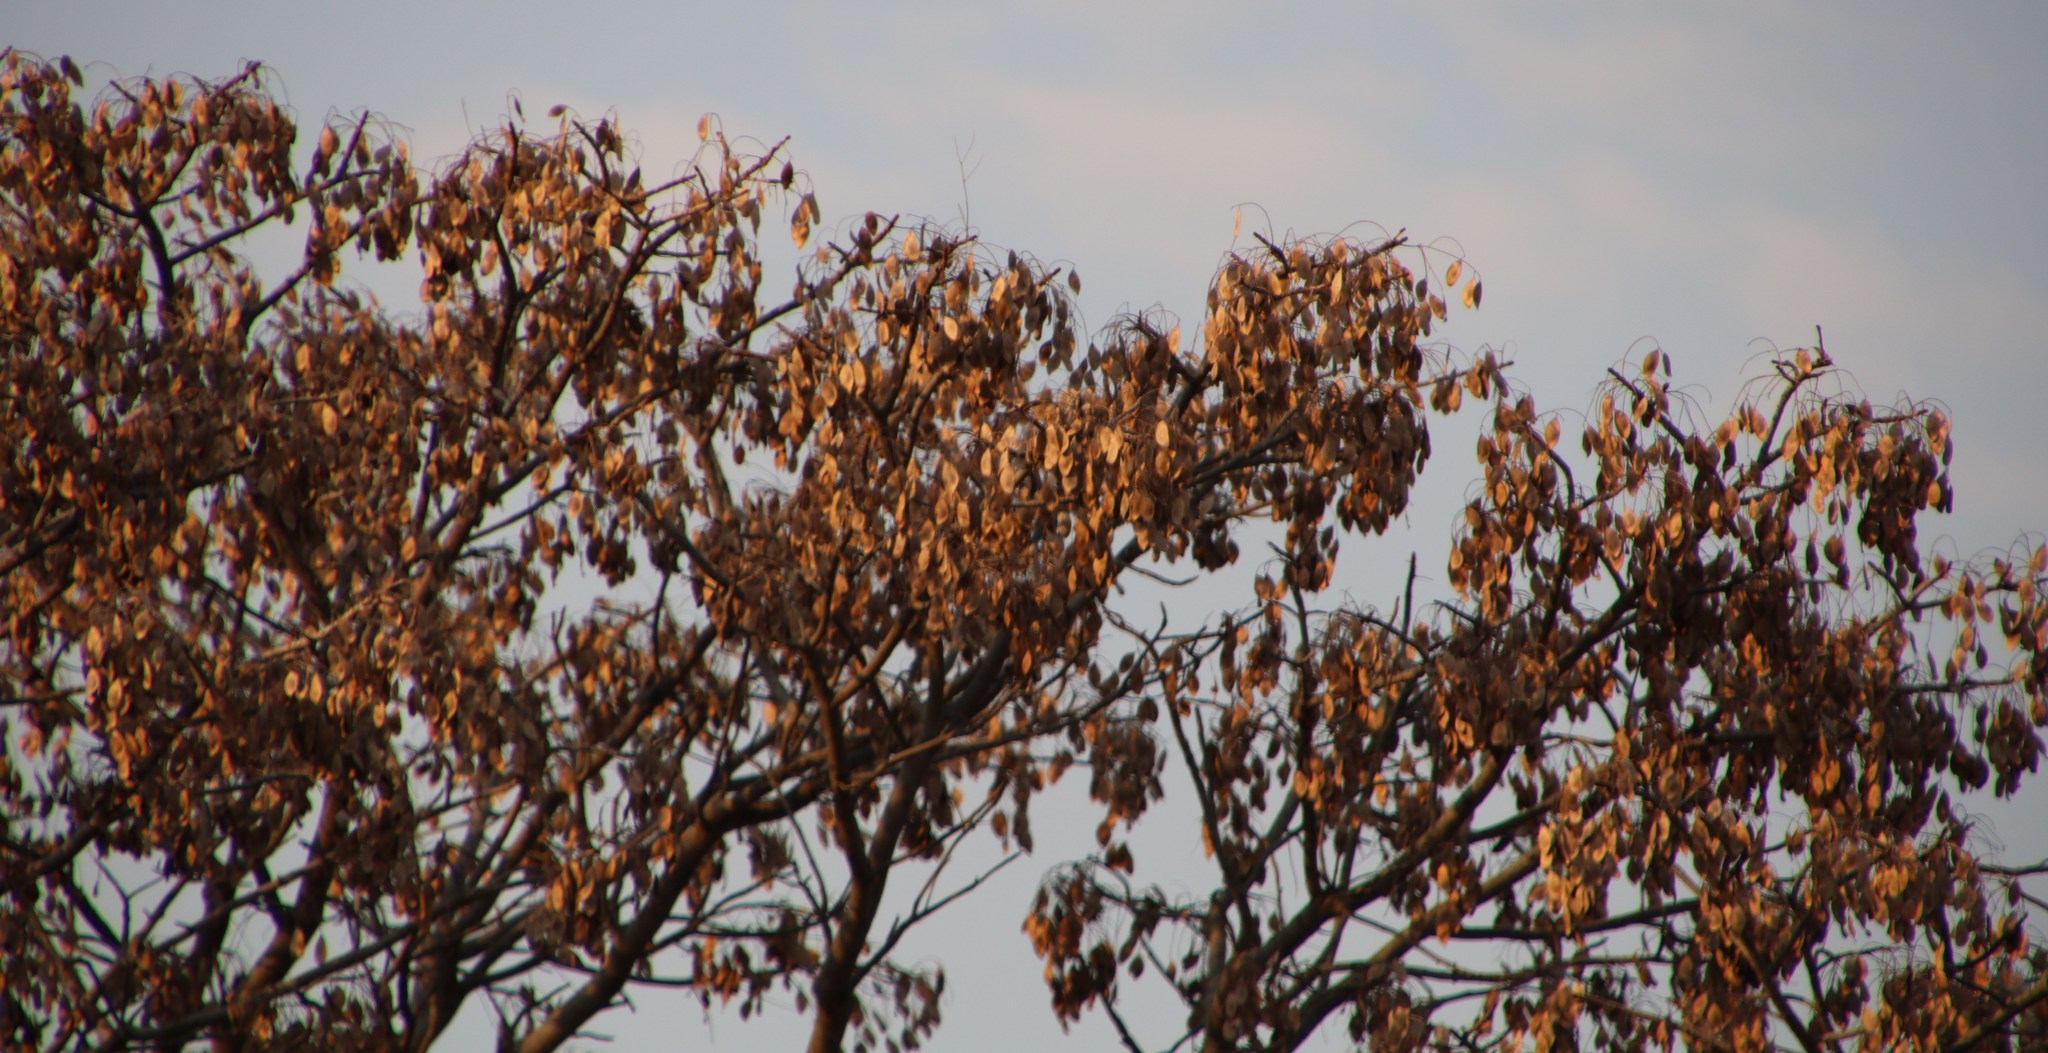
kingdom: Plantae
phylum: Tracheophyta
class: Magnoliopsida
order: Fabales
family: Fabaceae
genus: Burkea
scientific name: Burkea africana
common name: Mkalati tree
